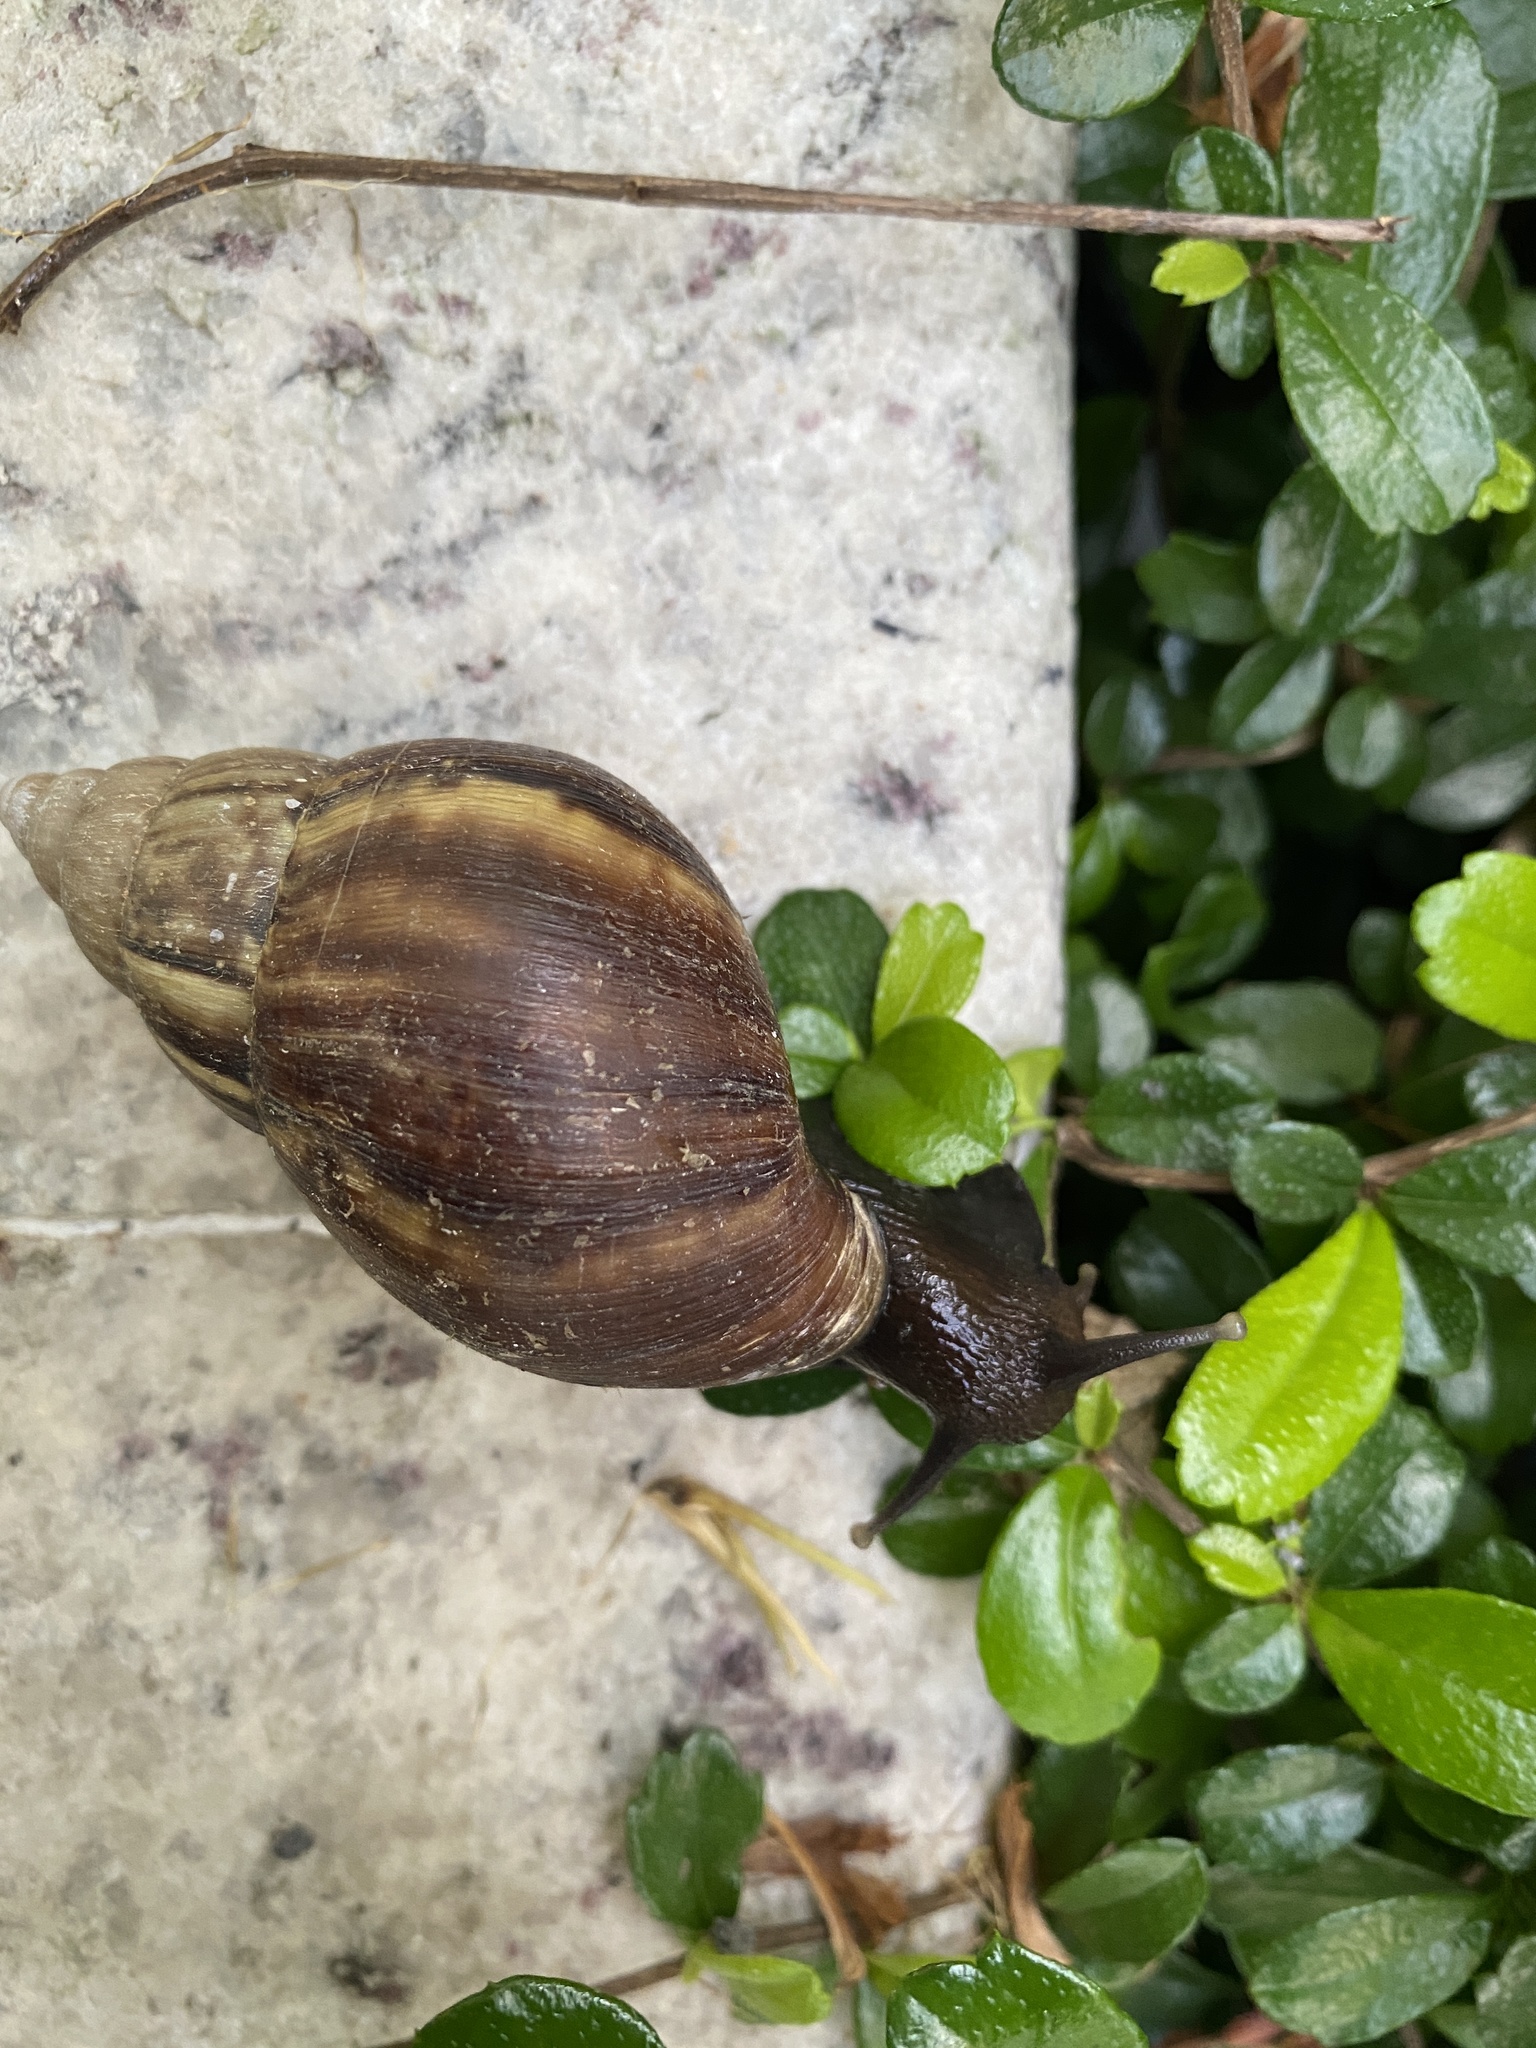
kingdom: Animalia
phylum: Mollusca
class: Gastropoda
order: Stylommatophora
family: Achatinidae
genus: Lissachatina
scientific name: Lissachatina fulica
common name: Giant african snail
